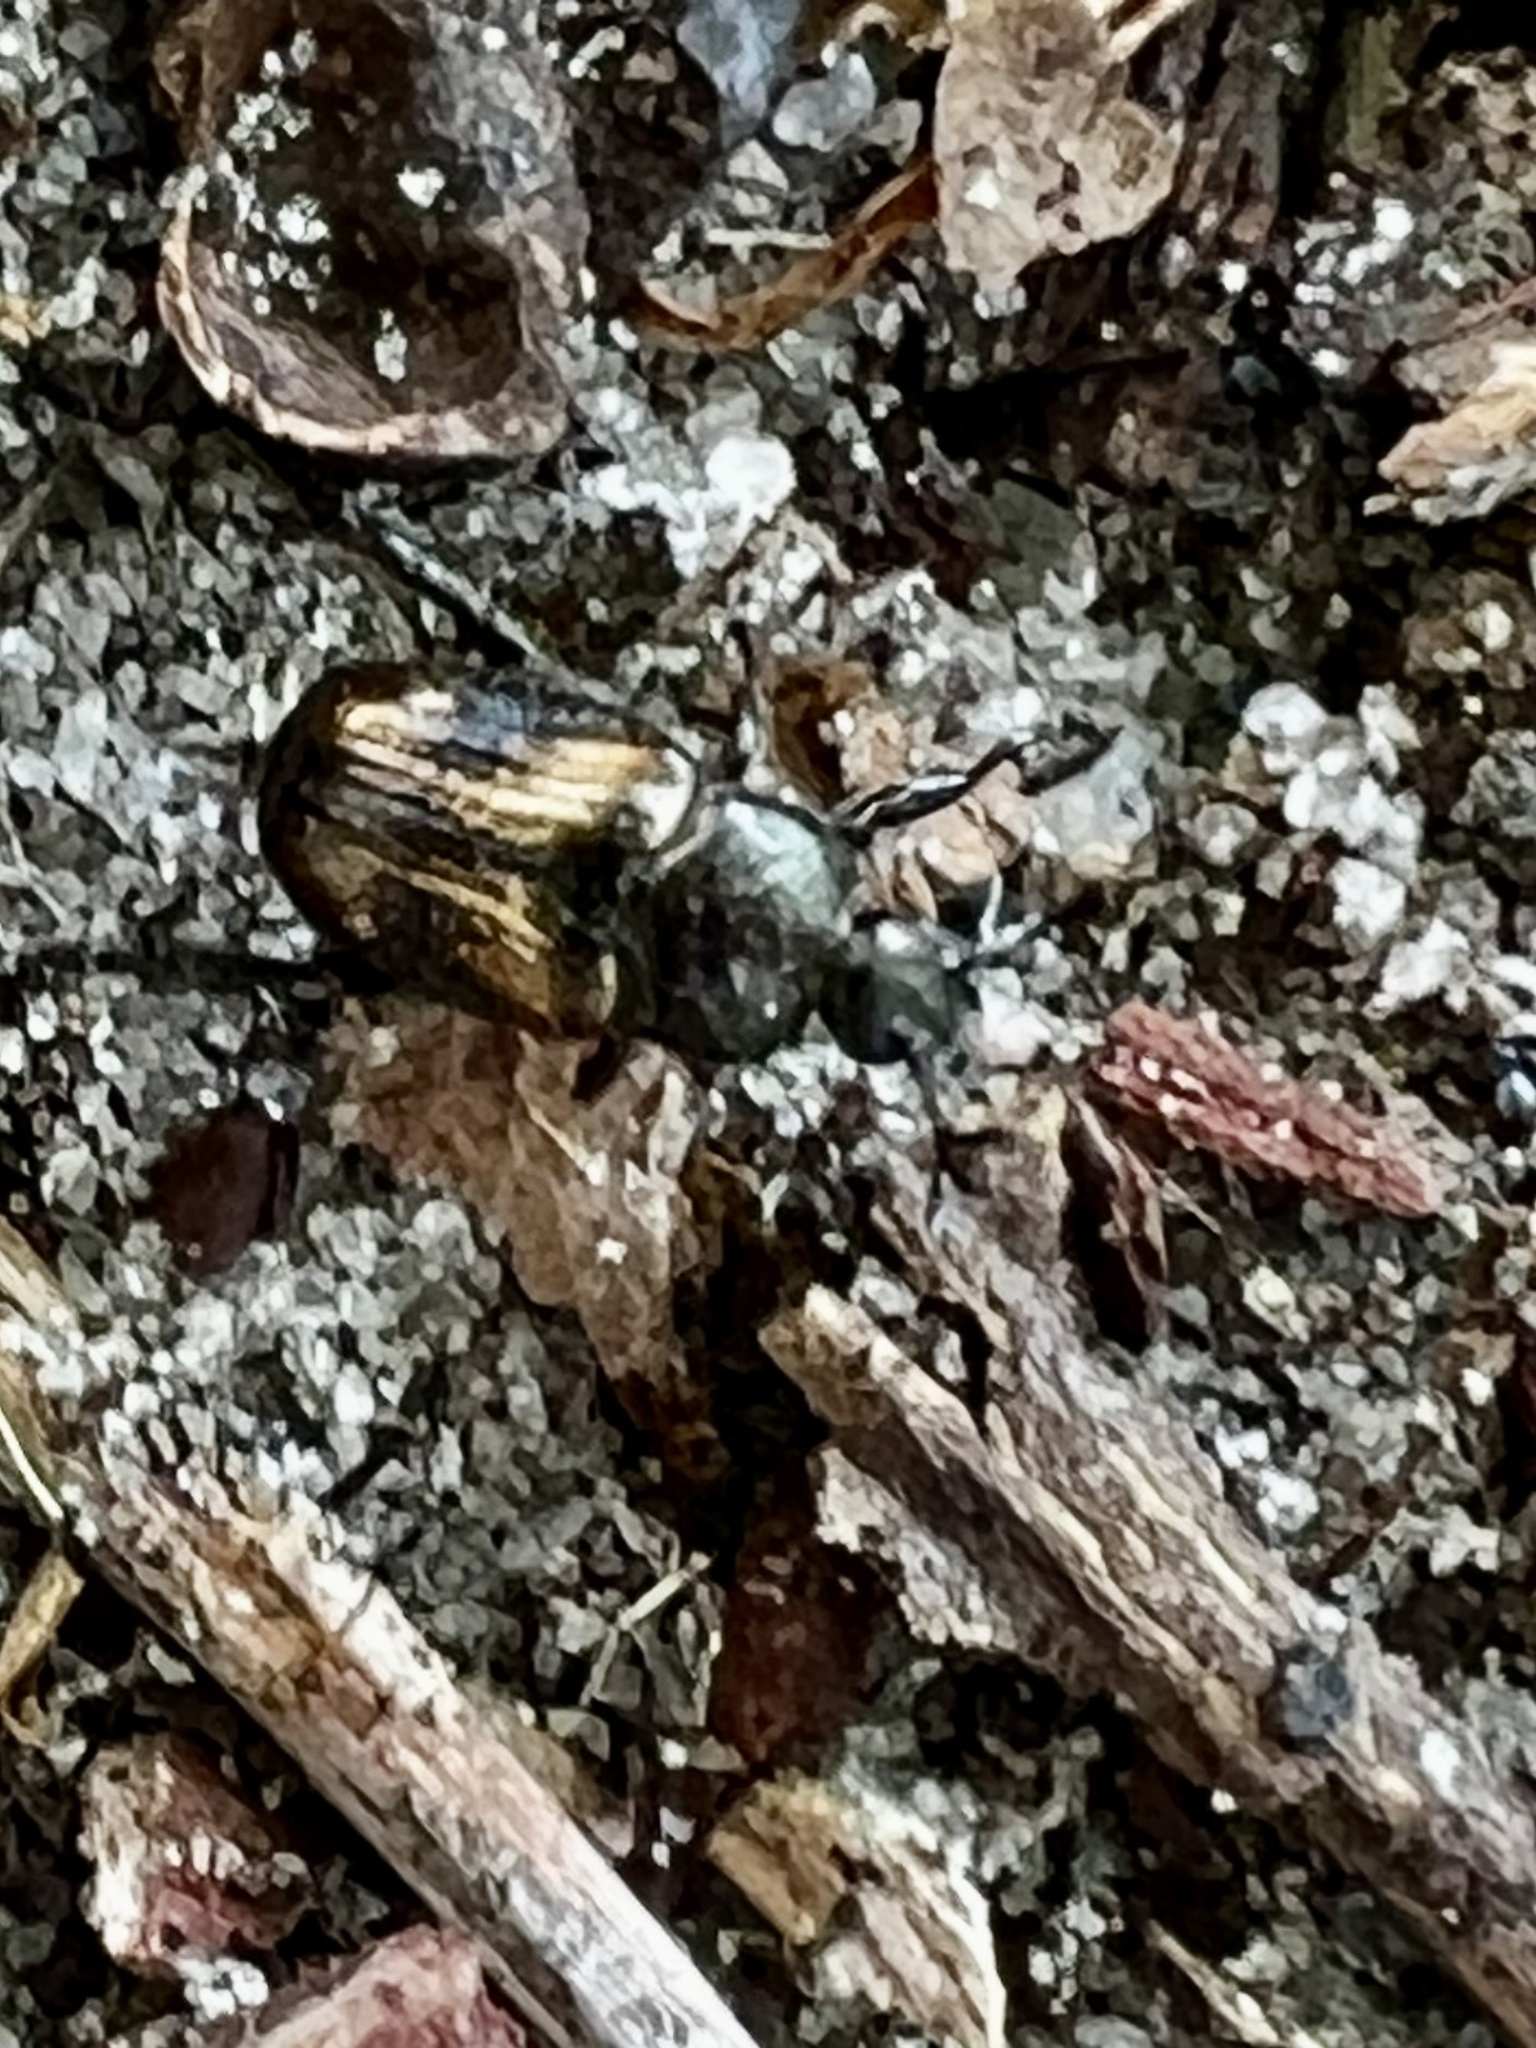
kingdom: Animalia
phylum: Arthropoda
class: Insecta
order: Coleoptera
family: Scarabaeidae
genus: Strigoderma
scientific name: Strigoderma pygmaea
